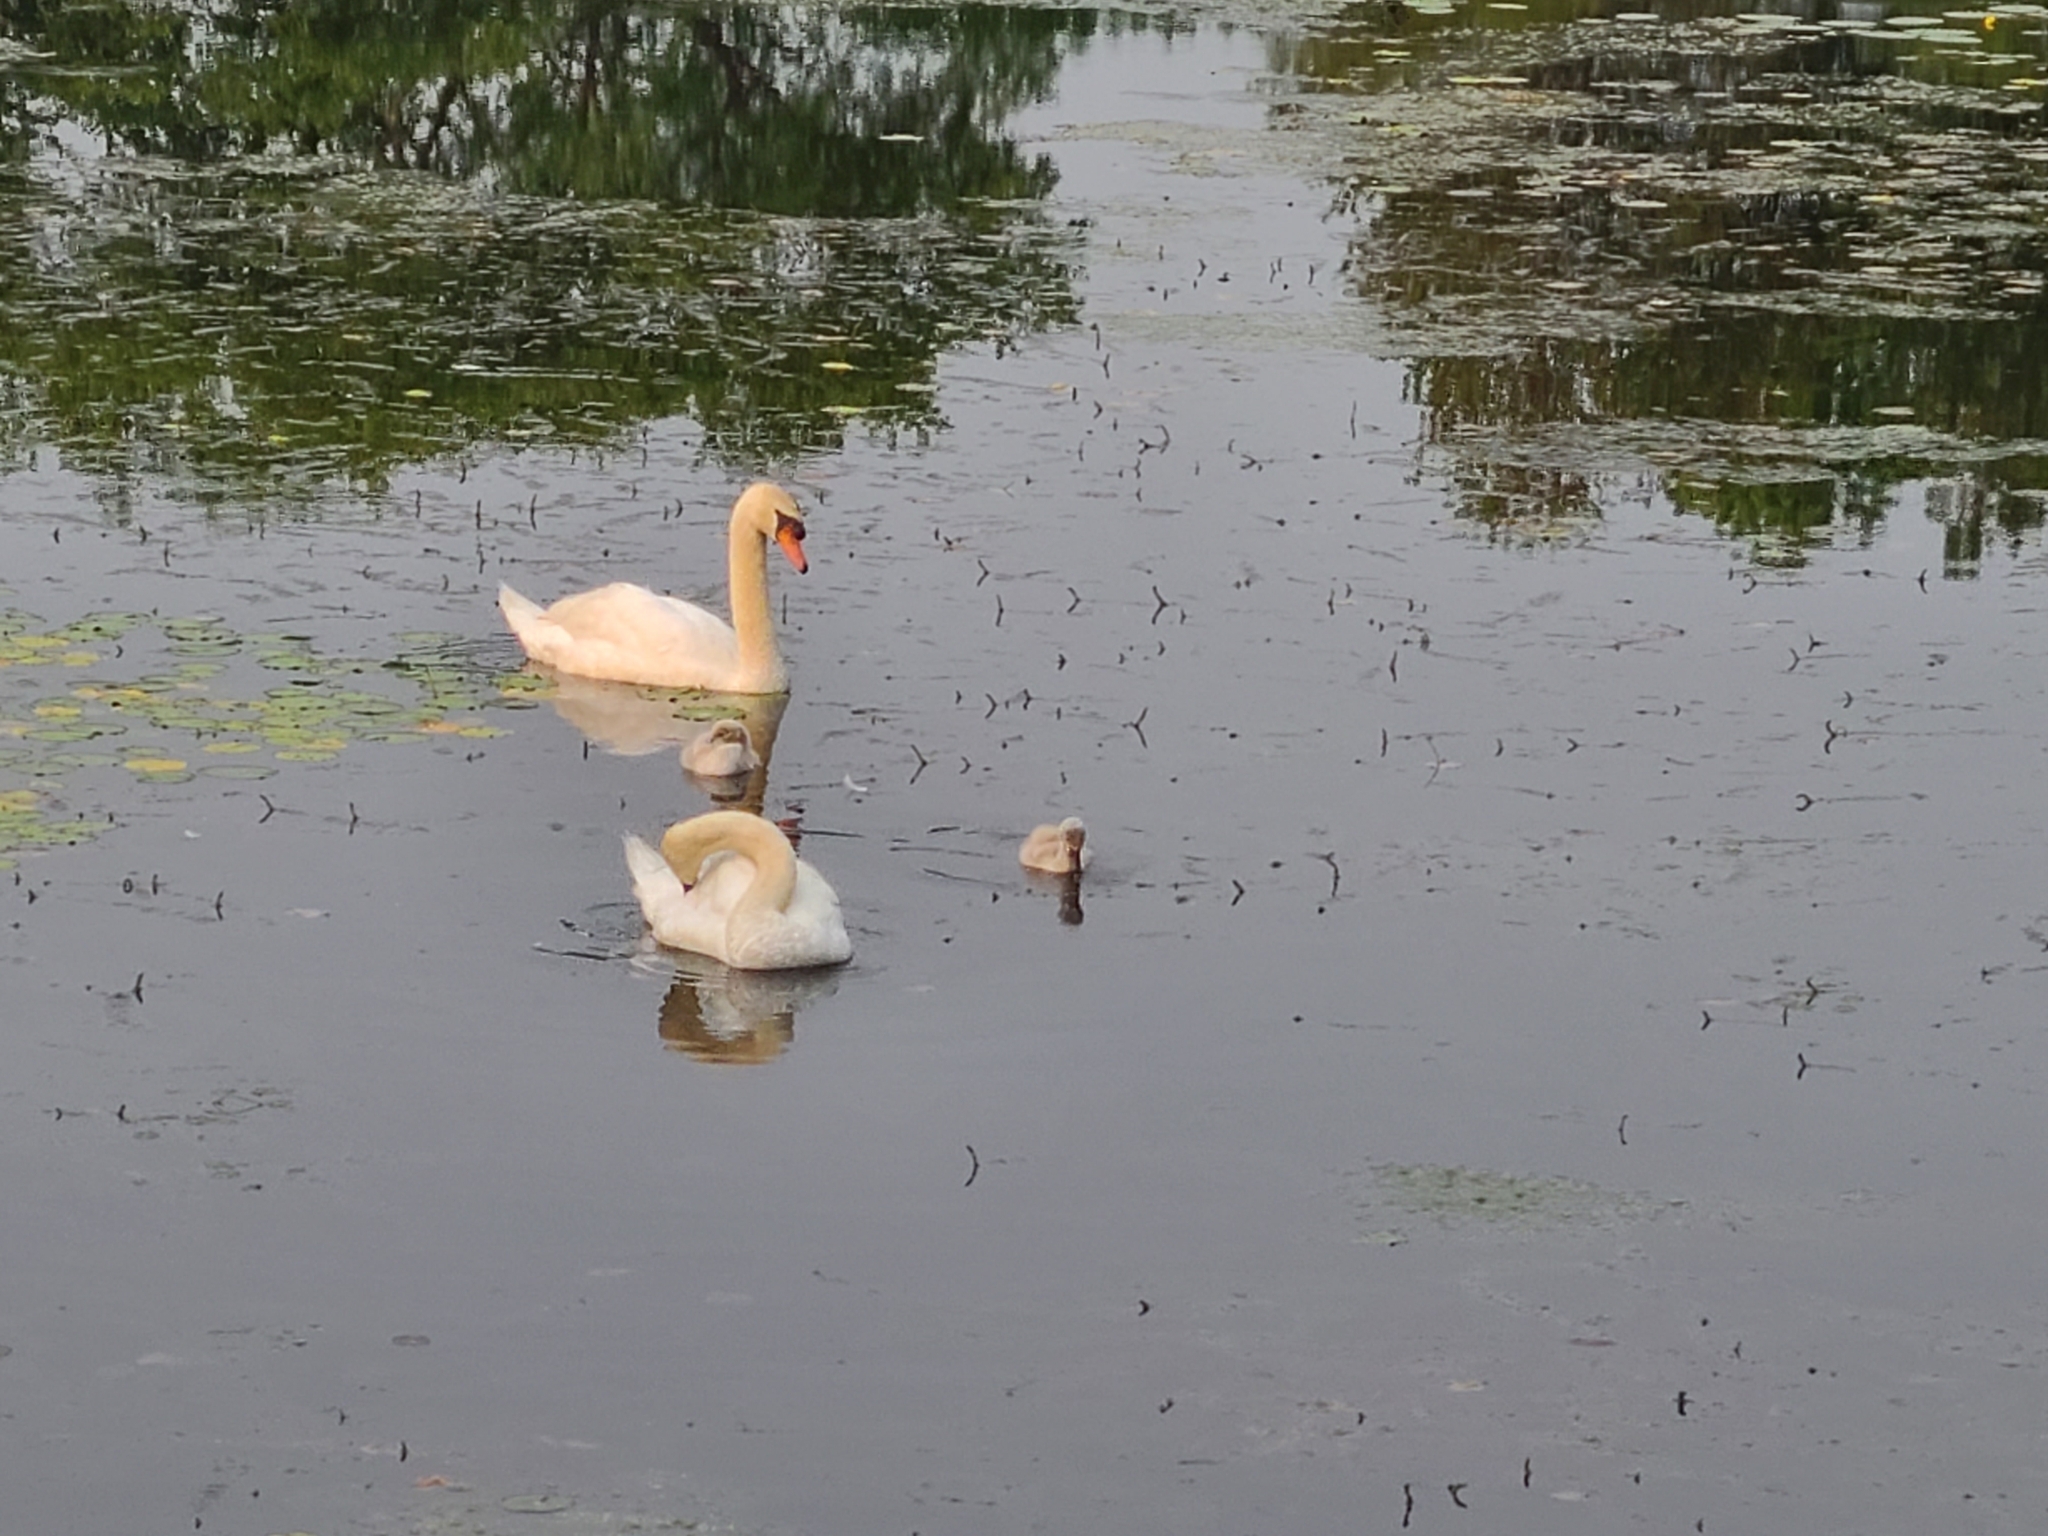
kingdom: Animalia
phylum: Chordata
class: Aves
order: Anseriformes
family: Anatidae
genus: Cygnus
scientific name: Cygnus olor
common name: Mute swan
